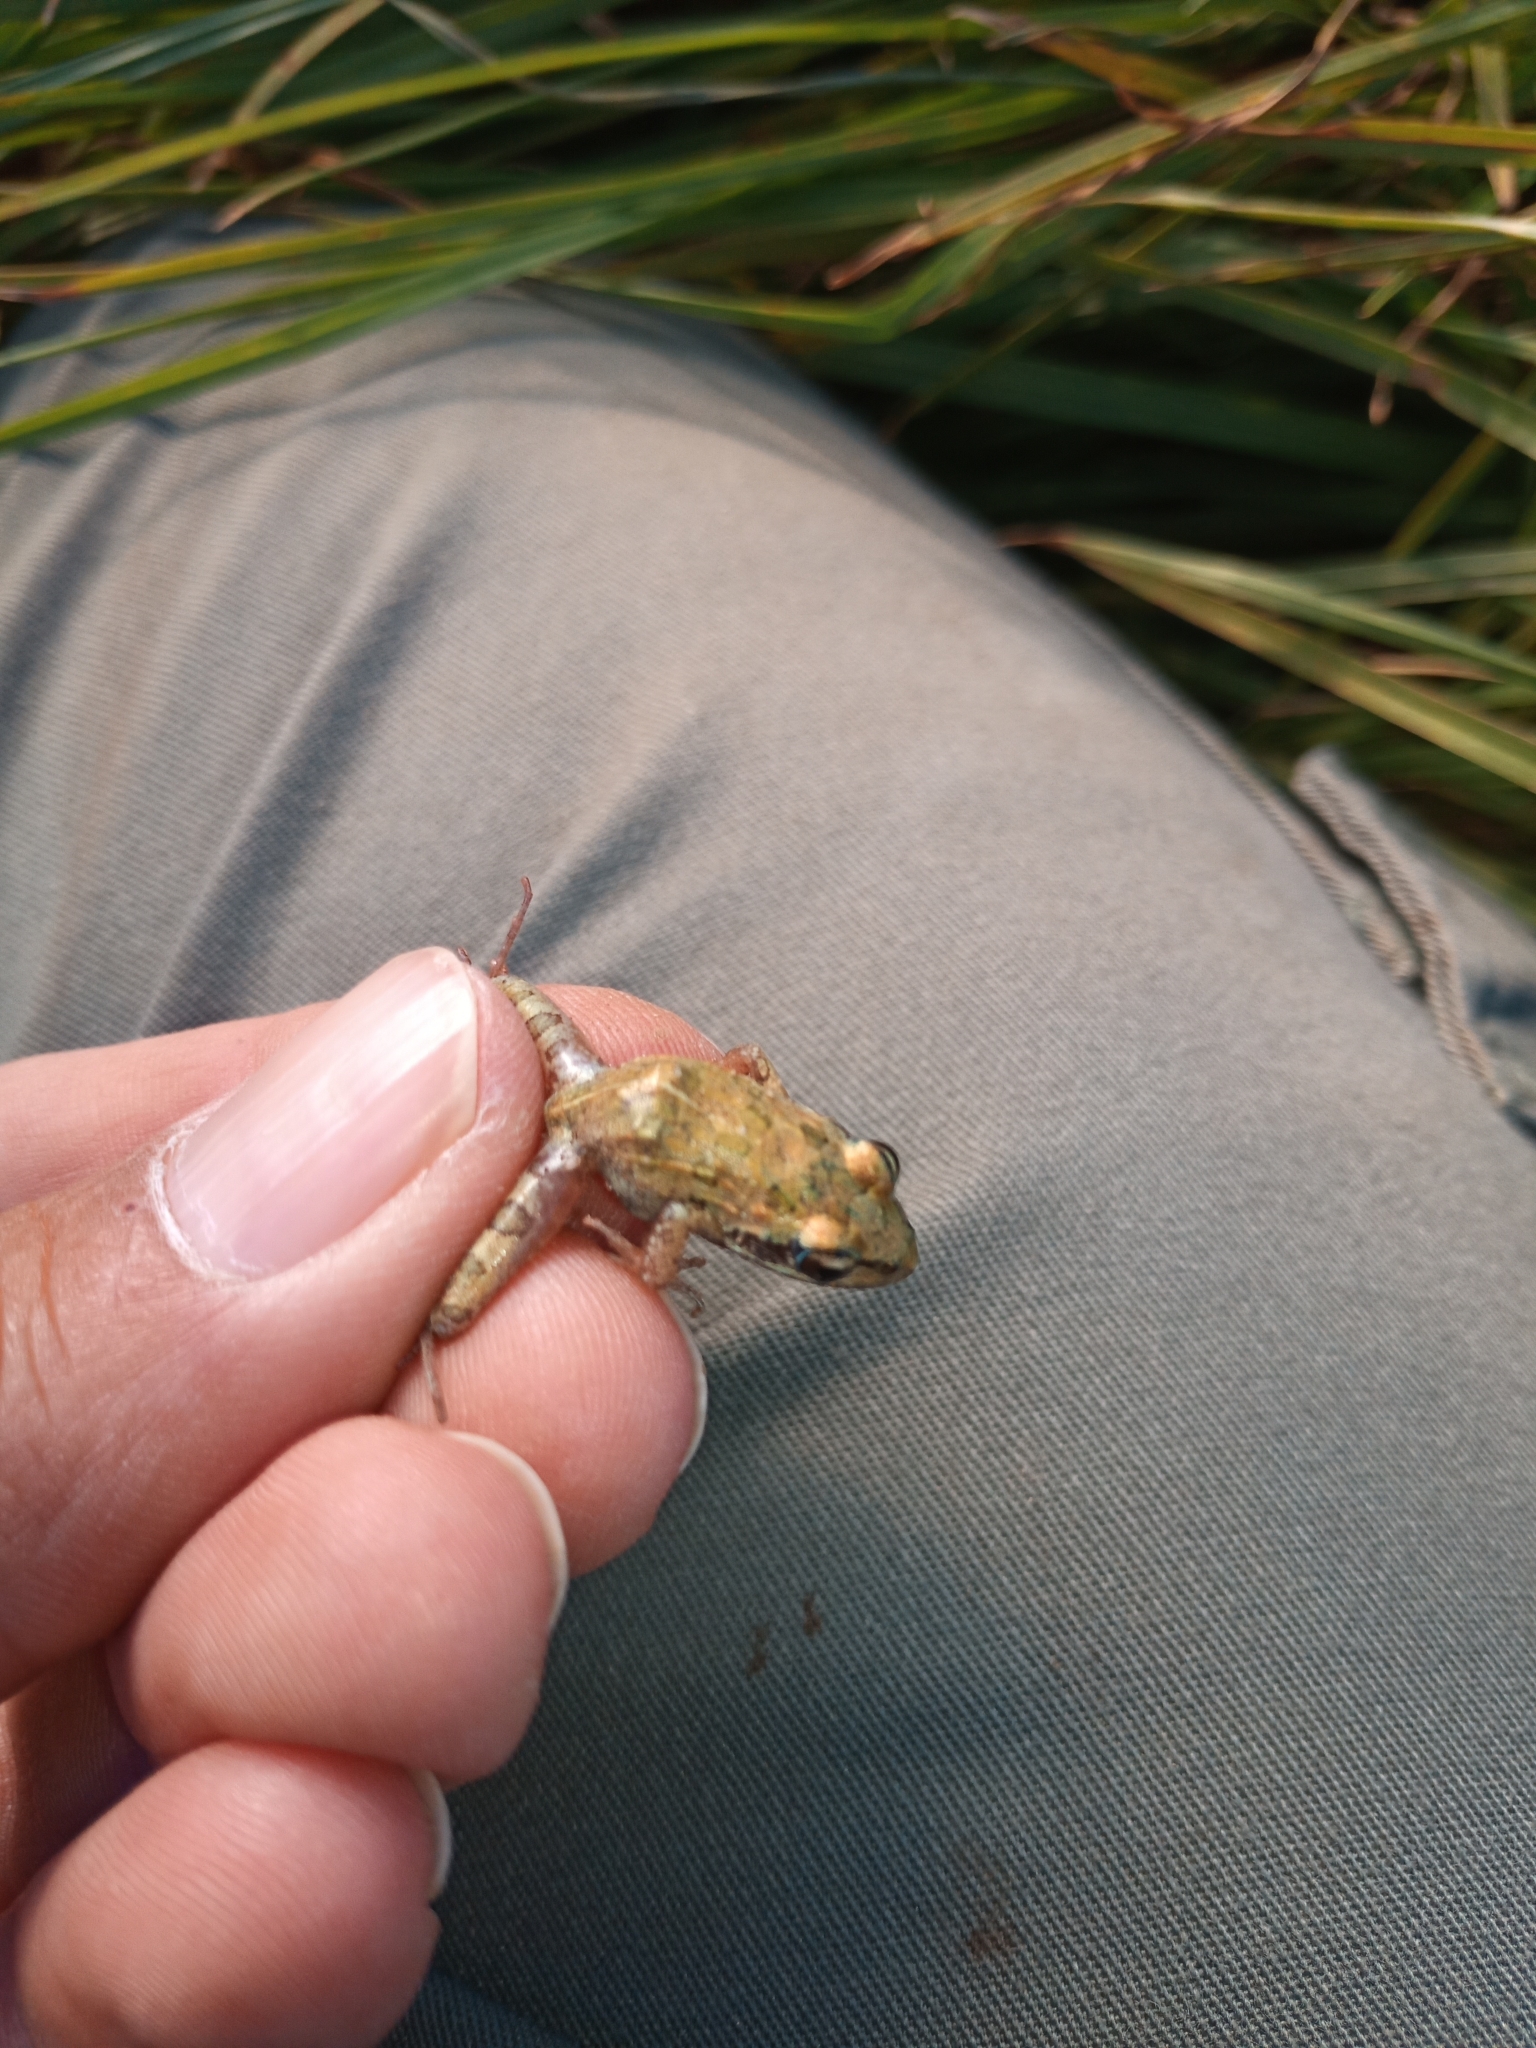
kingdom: Animalia
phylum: Chordata
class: Amphibia
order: Anura
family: Pyxicephalidae
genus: Strongylopus
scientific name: Strongylopus grayii
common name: Gray's stream frog
